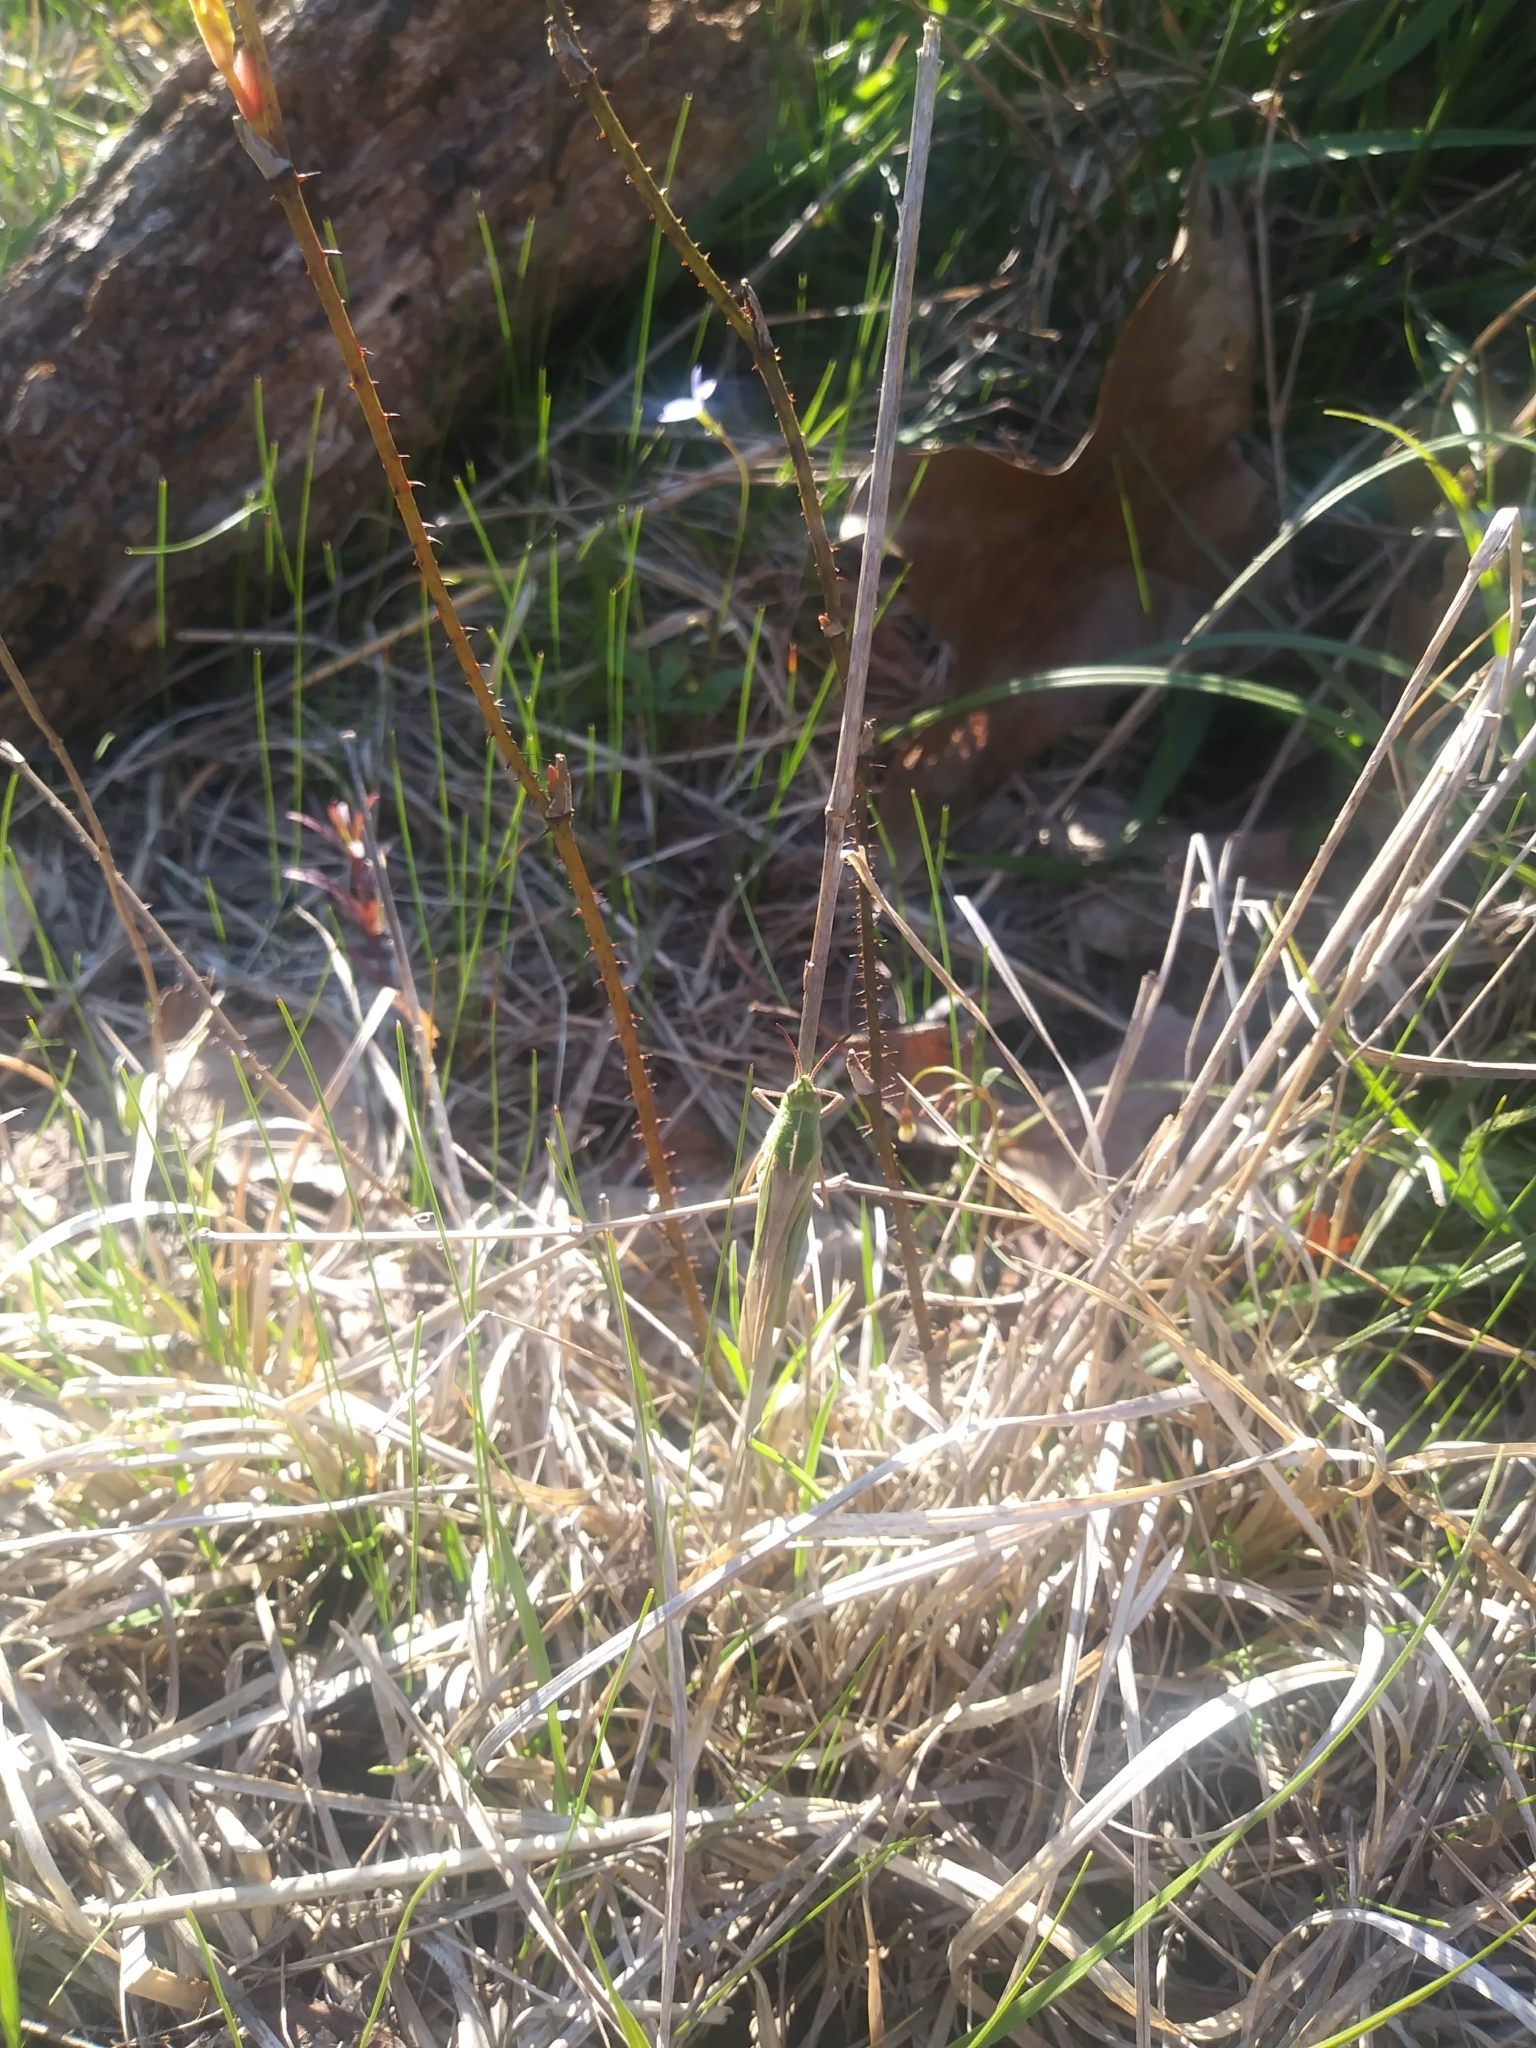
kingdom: Animalia
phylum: Arthropoda
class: Insecta
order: Orthoptera
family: Acrididae
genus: Chortophaga
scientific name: Chortophaga viridifasciata
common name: Green-striped grasshopper
